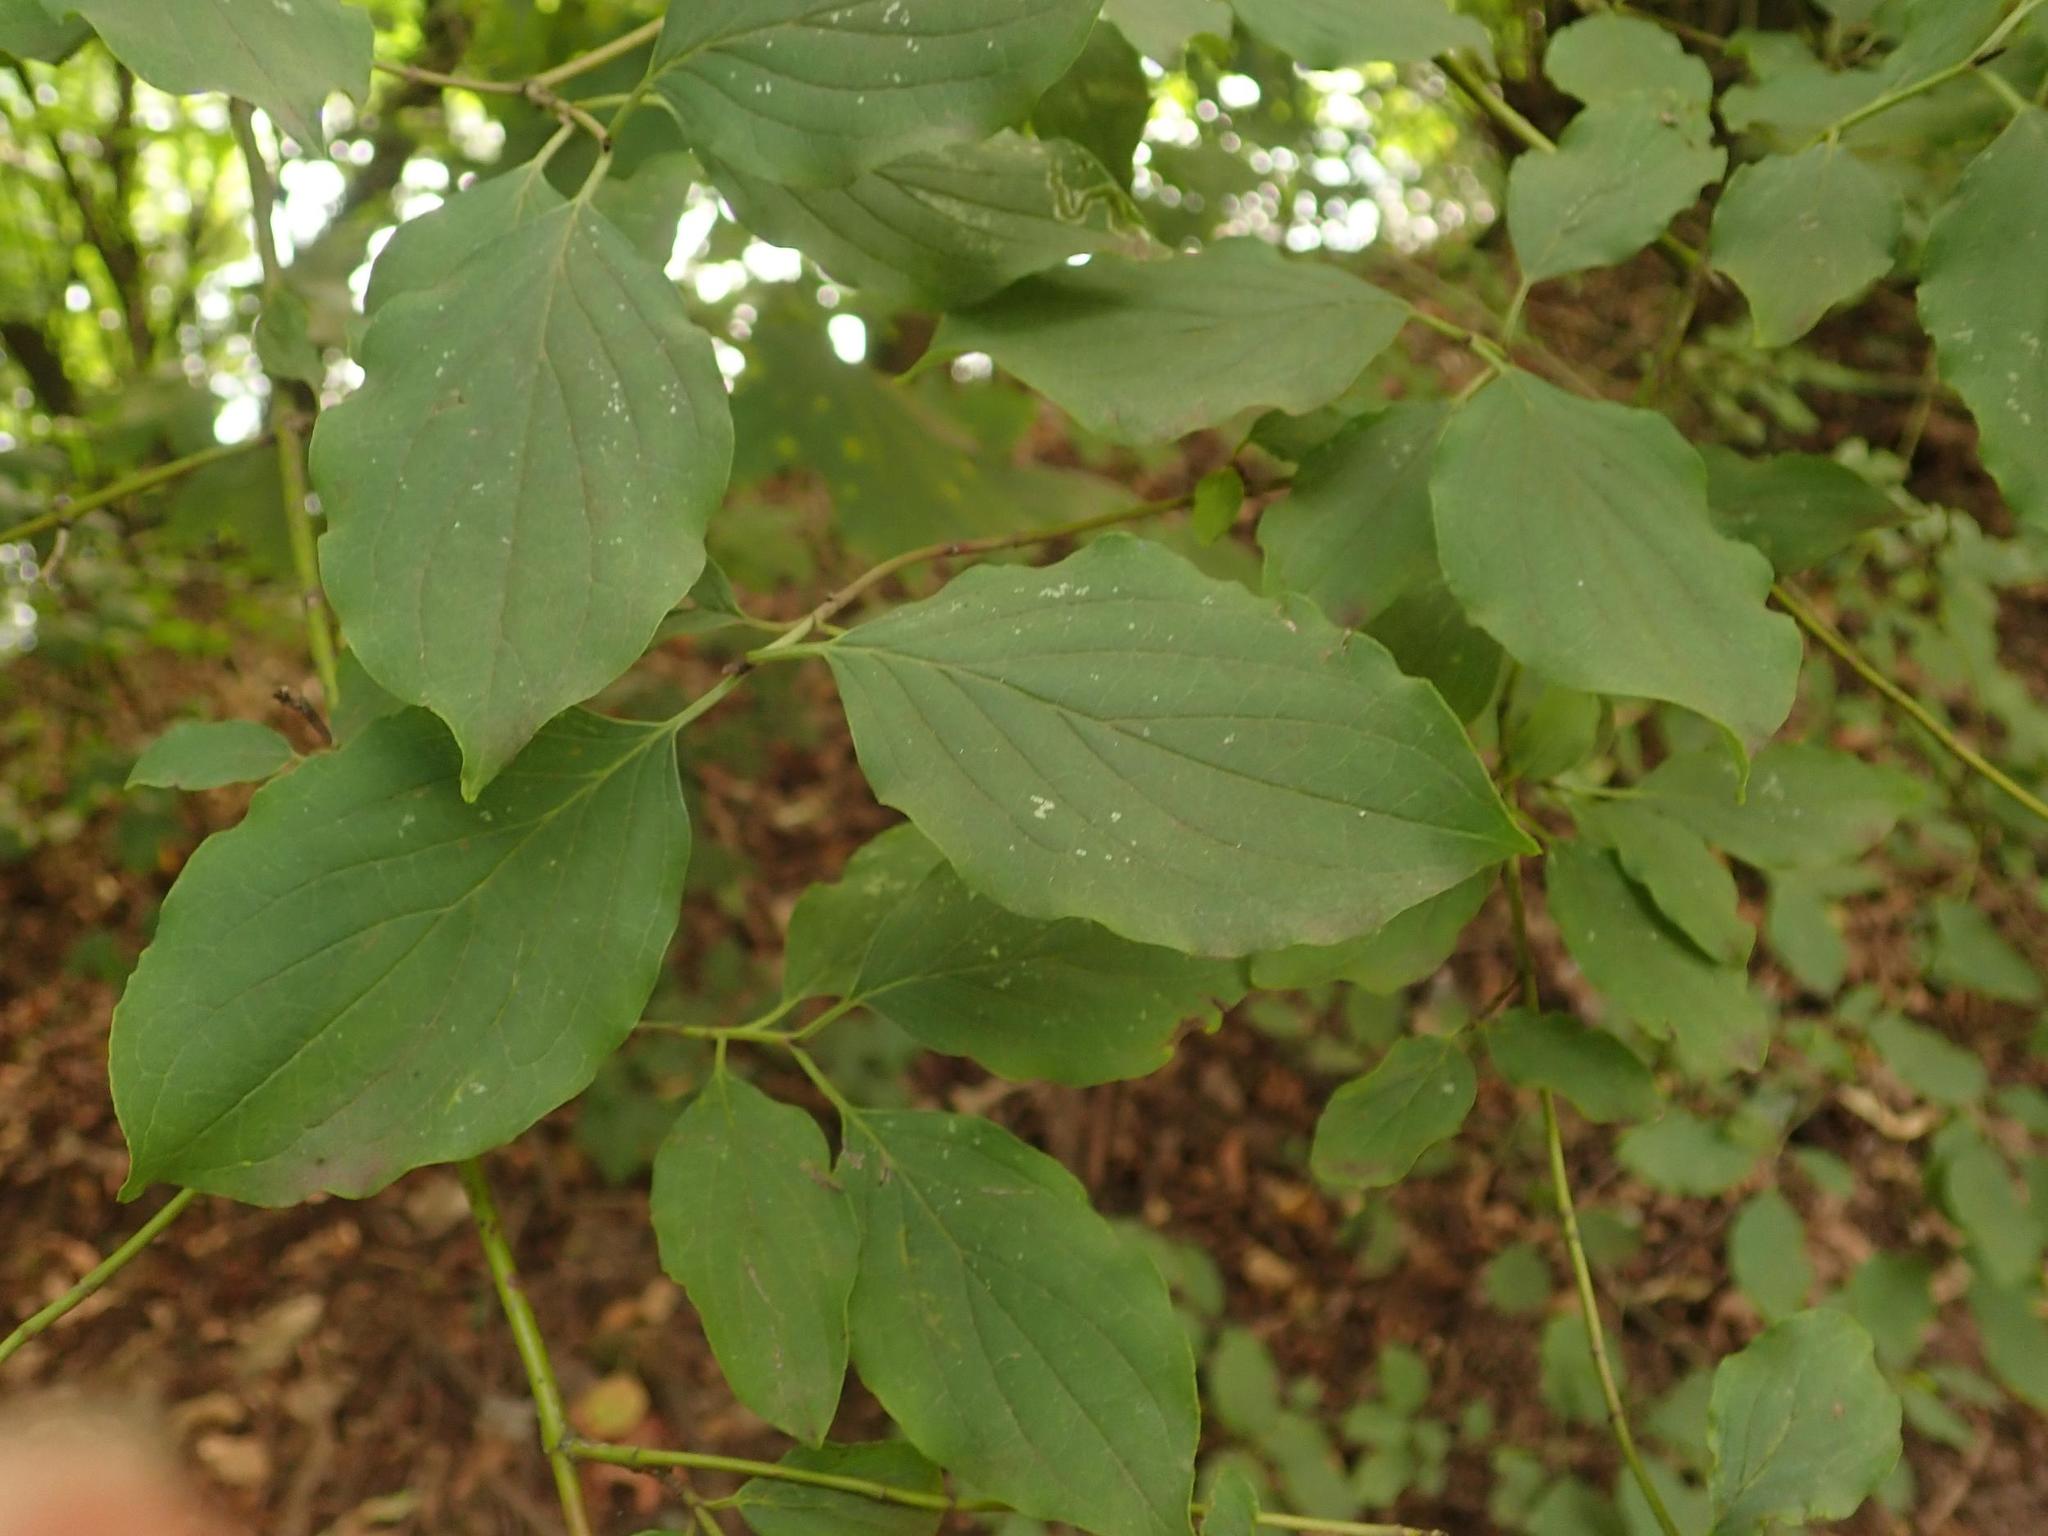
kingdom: Plantae
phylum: Tracheophyta
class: Magnoliopsida
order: Cornales
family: Cornaceae
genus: Cornus
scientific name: Cornus sanguinea
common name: Dogwood
